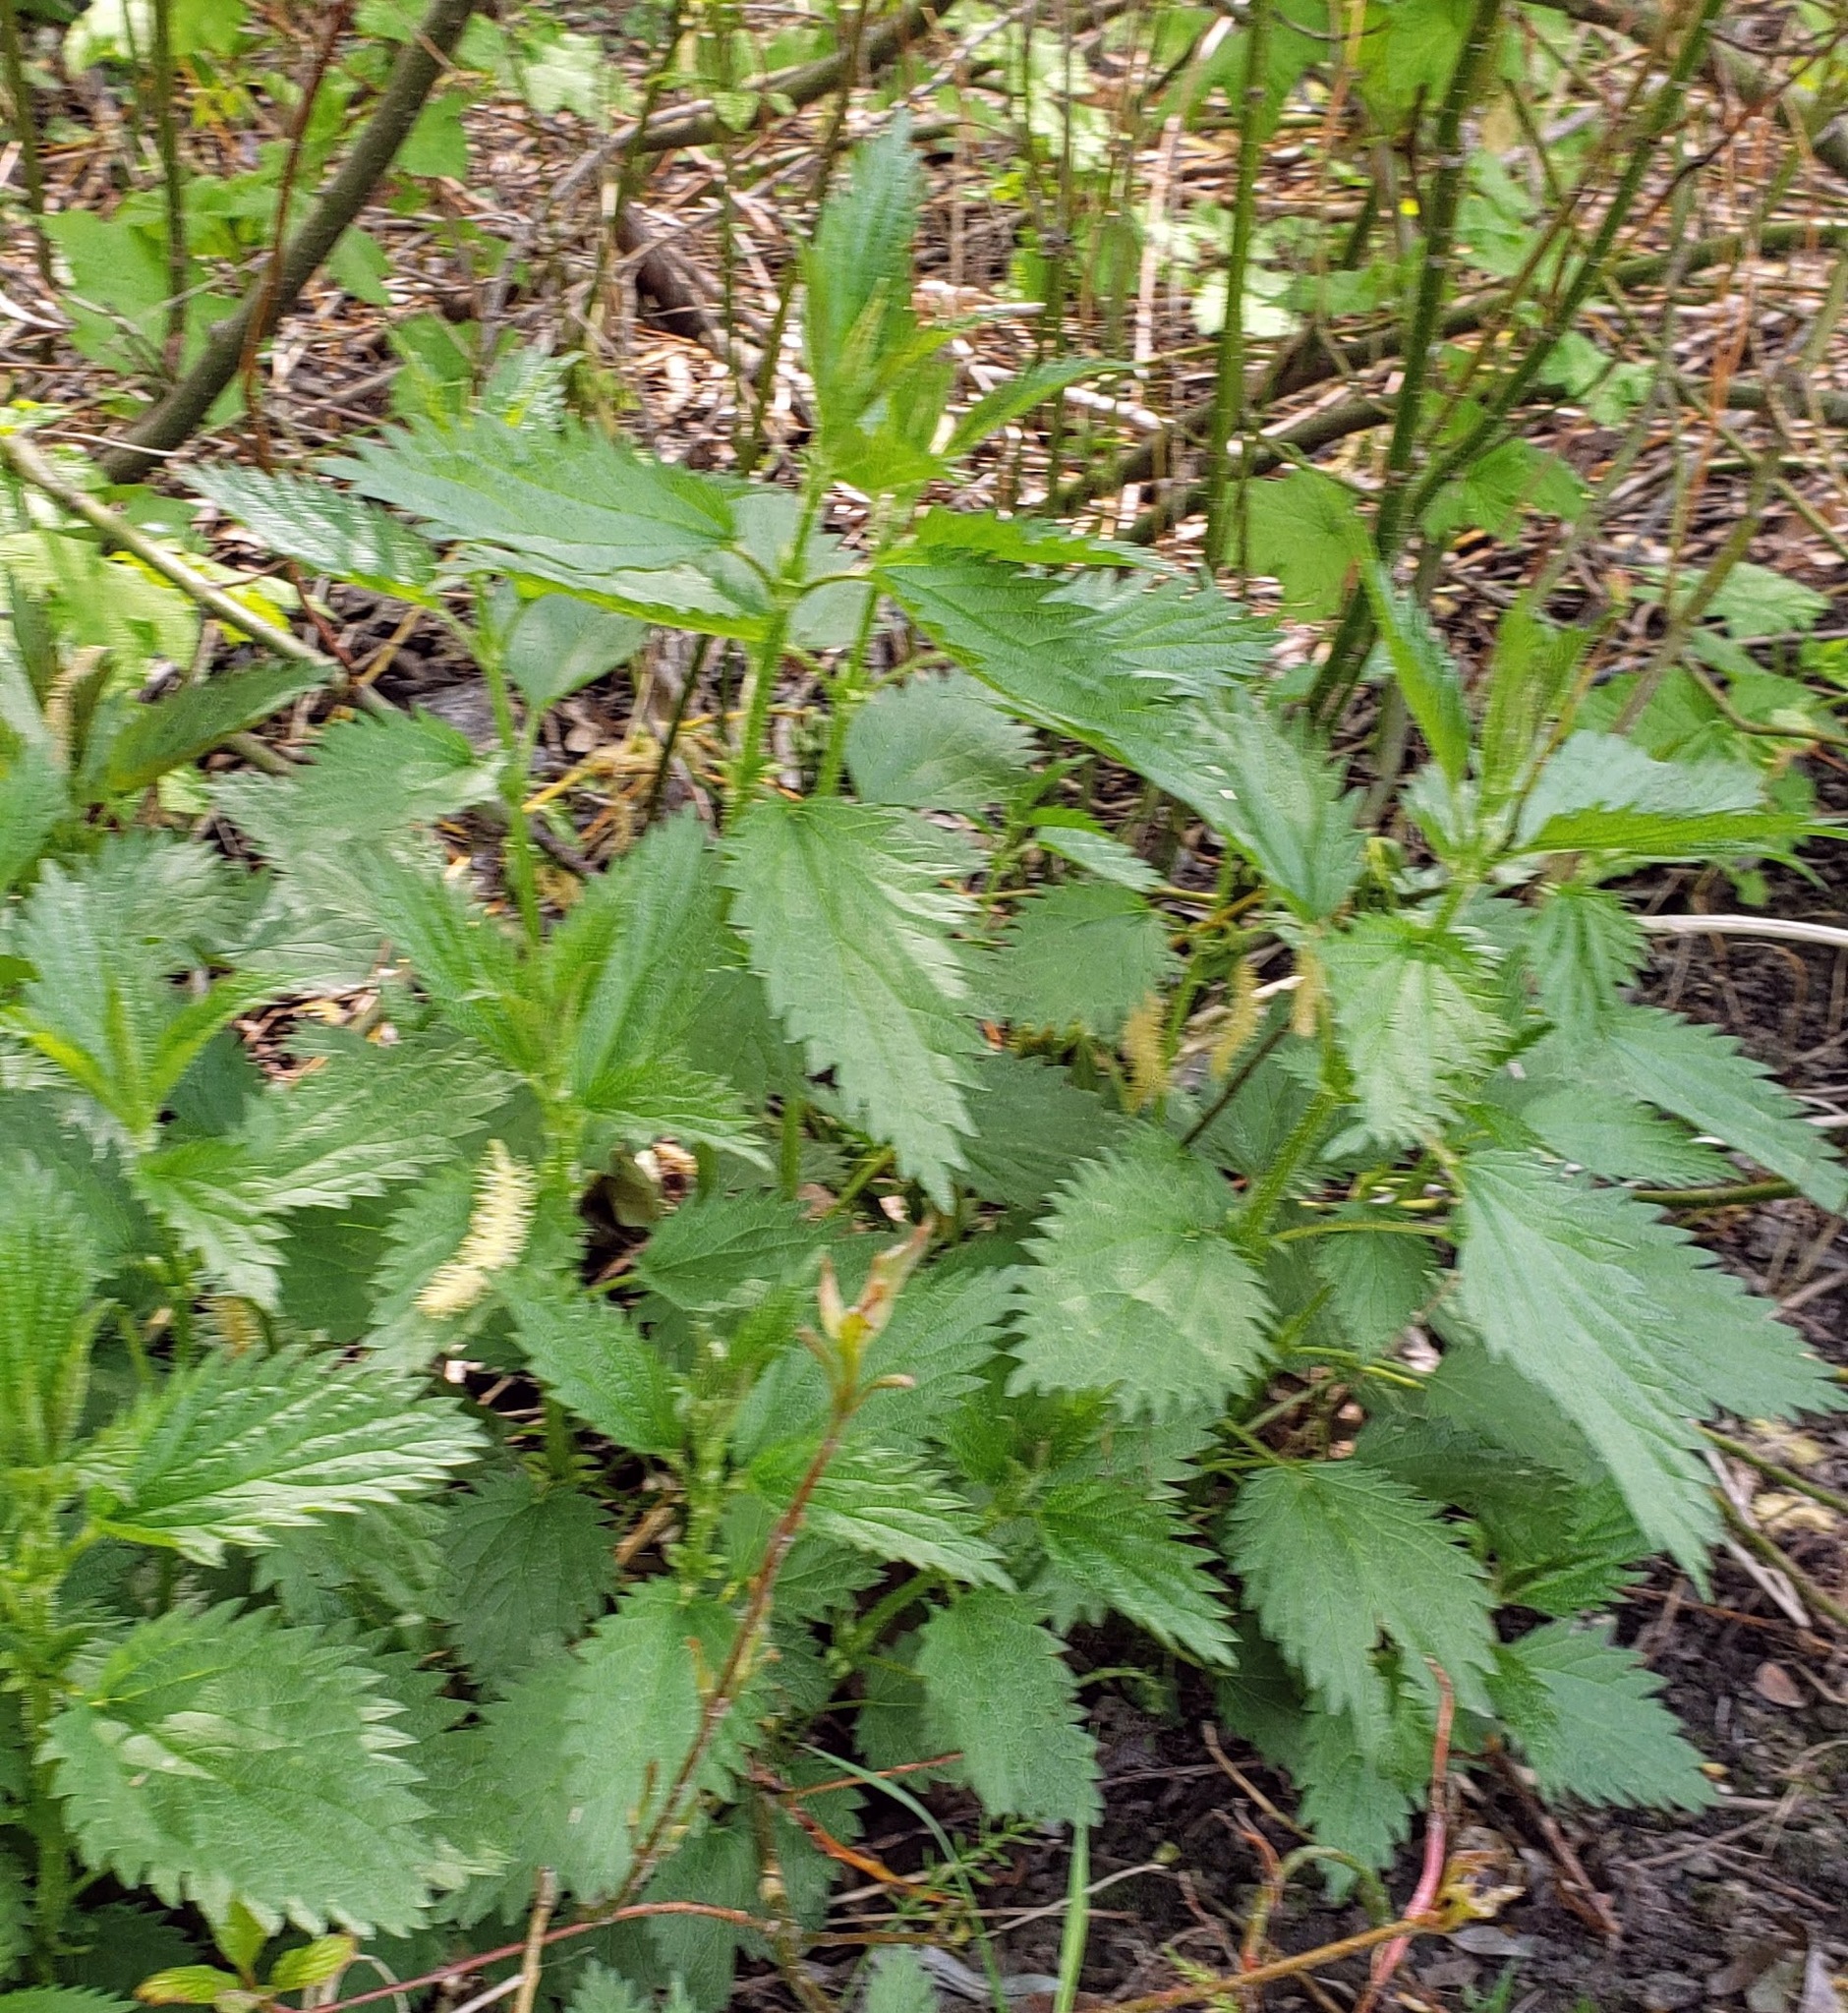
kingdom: Plantae
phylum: Tracheophyta
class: Magnoliopsida
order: Rosales
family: Urticaceae
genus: Urtica
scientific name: Urtica dioica
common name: Common nettle
